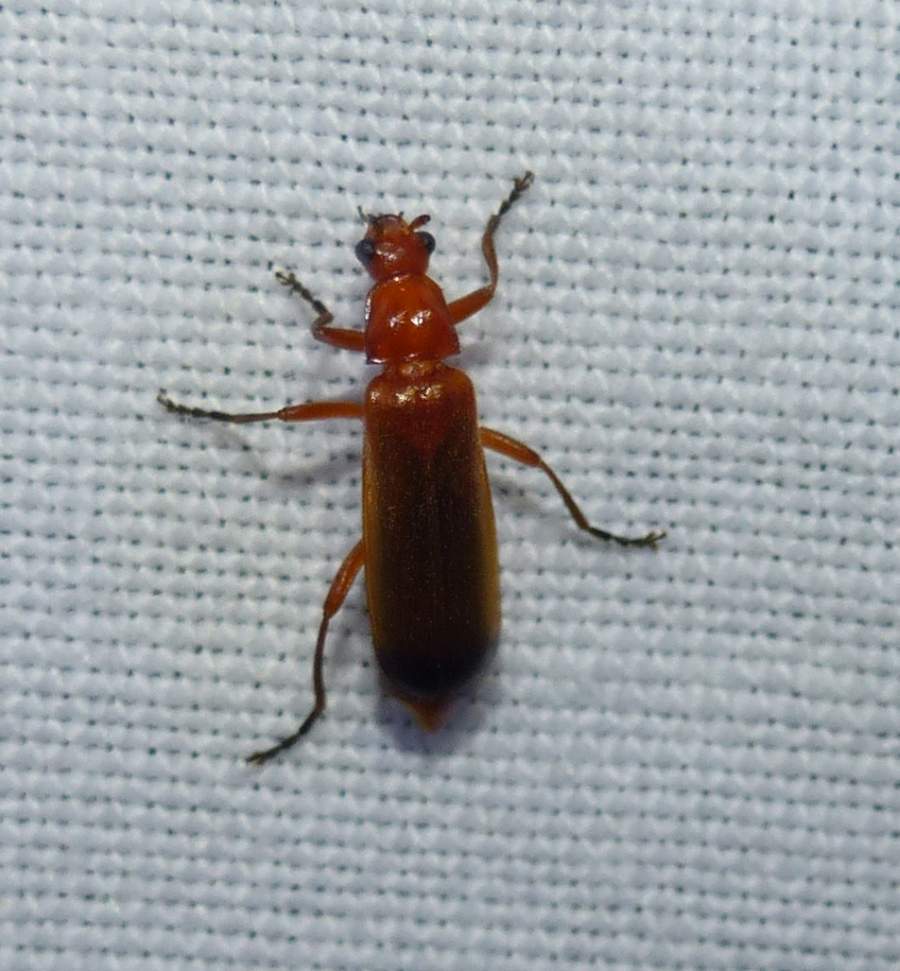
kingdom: Animalia
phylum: Arthropoda
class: Insecta
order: Coleoptera
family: Cantharidae
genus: Rhagonycha
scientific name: Rhagonycha fulva
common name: Common red soldier beetle
